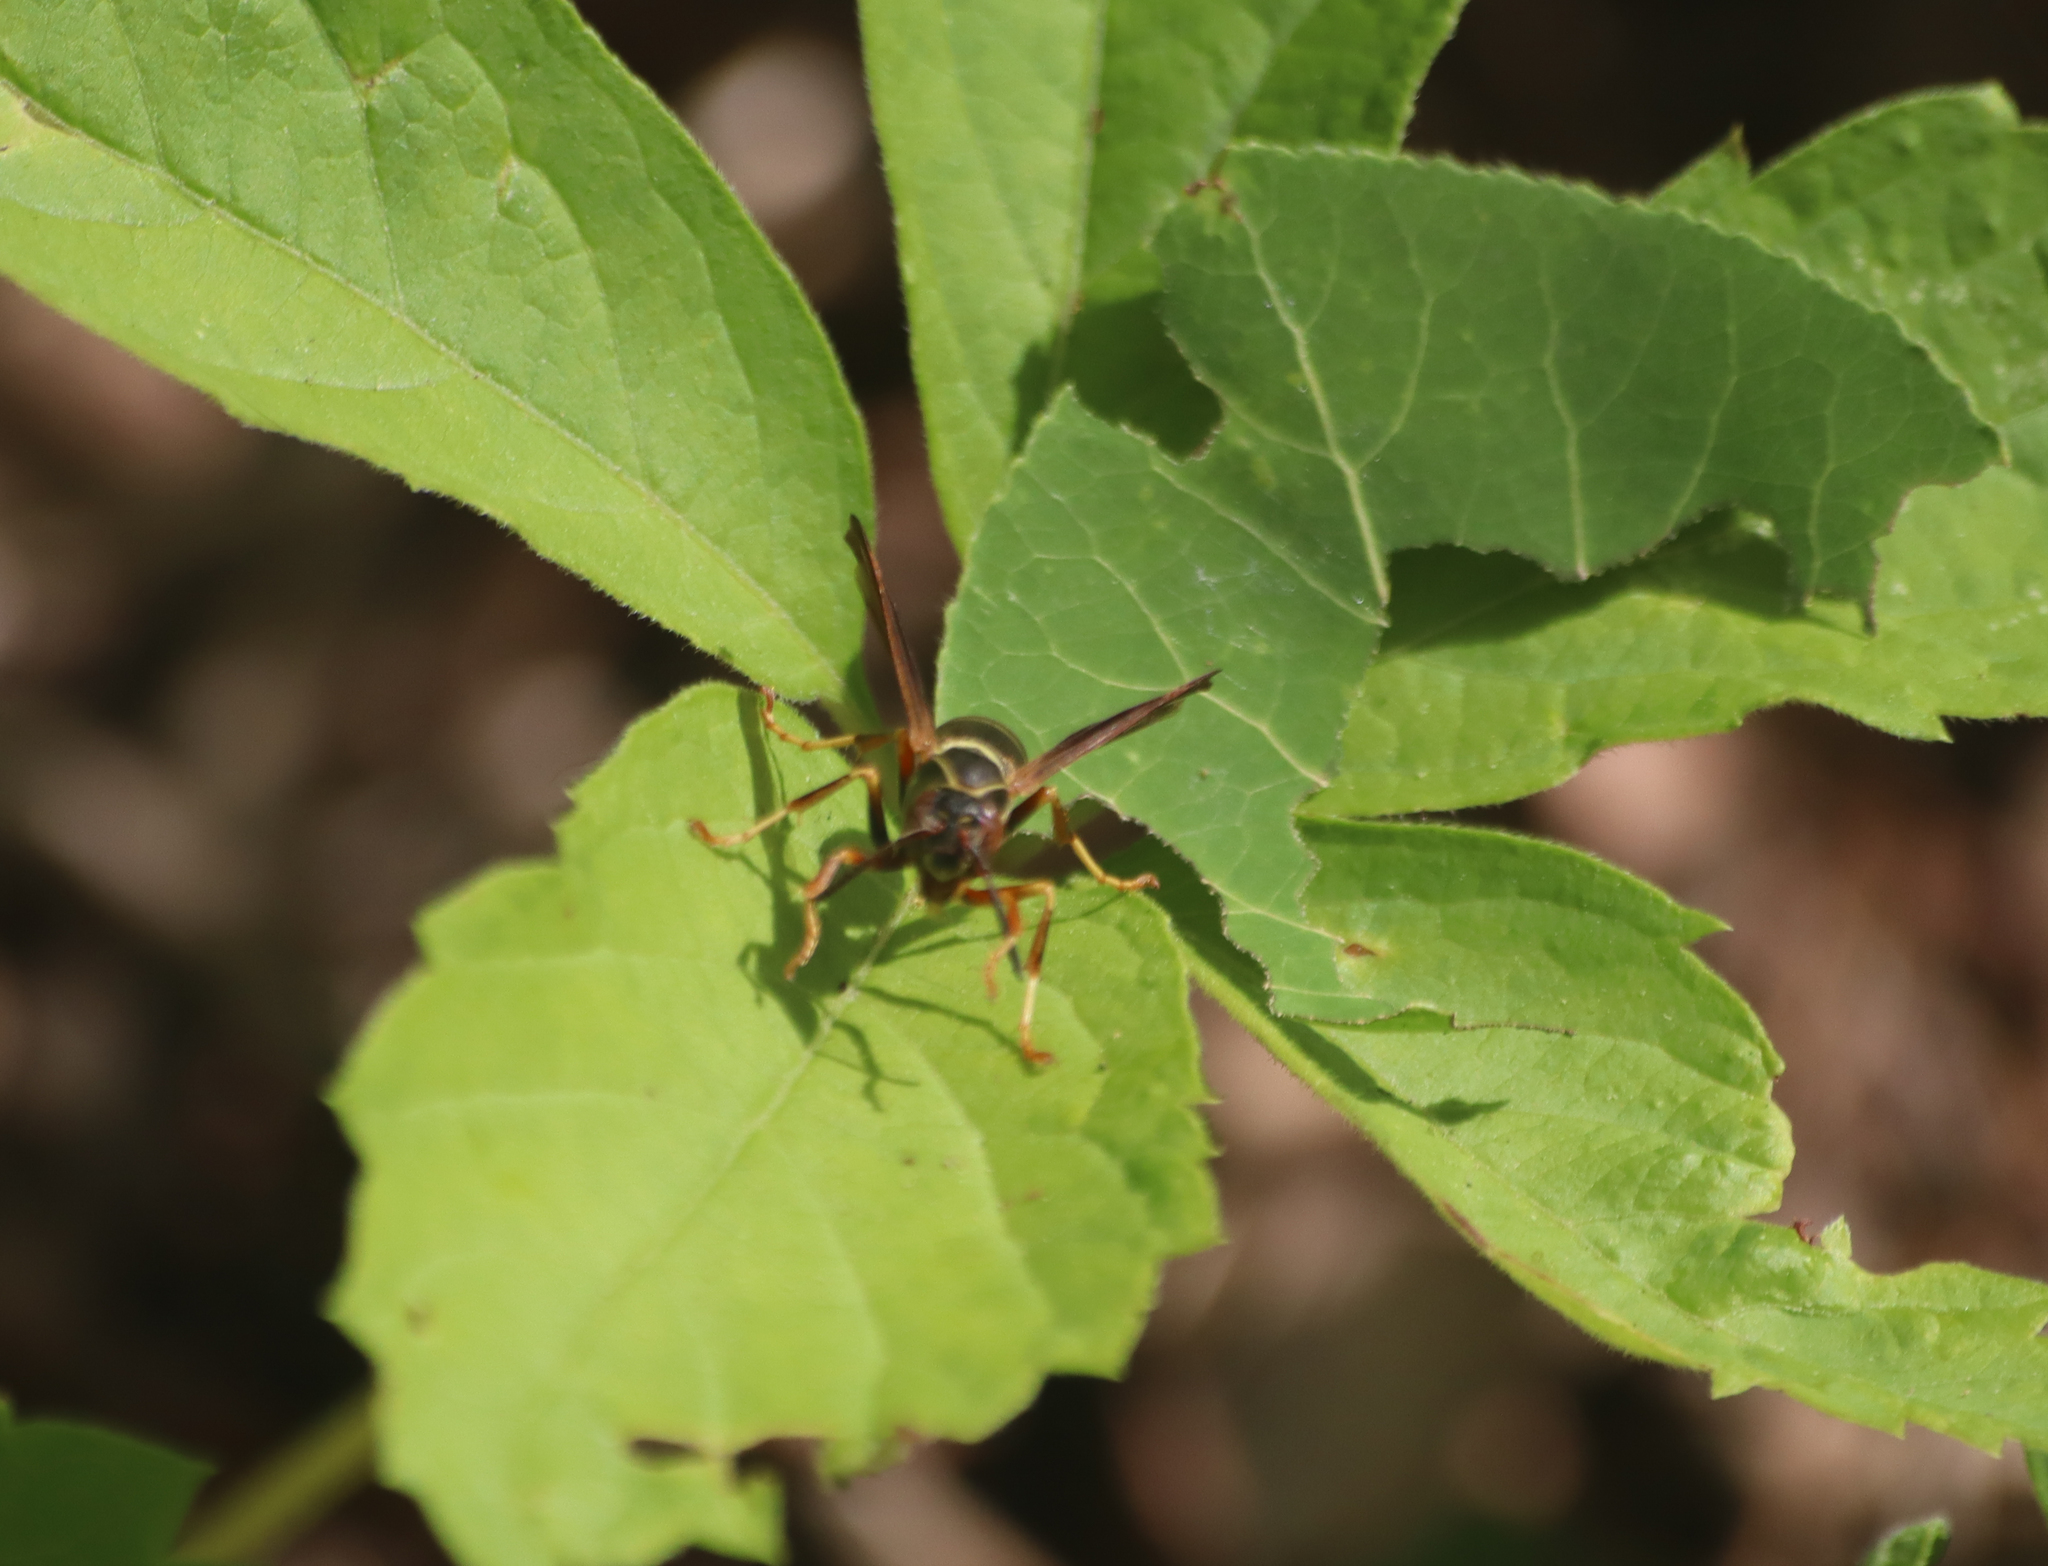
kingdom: Animalia
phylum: Arthropoda
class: Insecta
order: Hymenoptera
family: Eumenidae
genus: Polistes
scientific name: Polistes fuscatus
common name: Dark paper wasp
